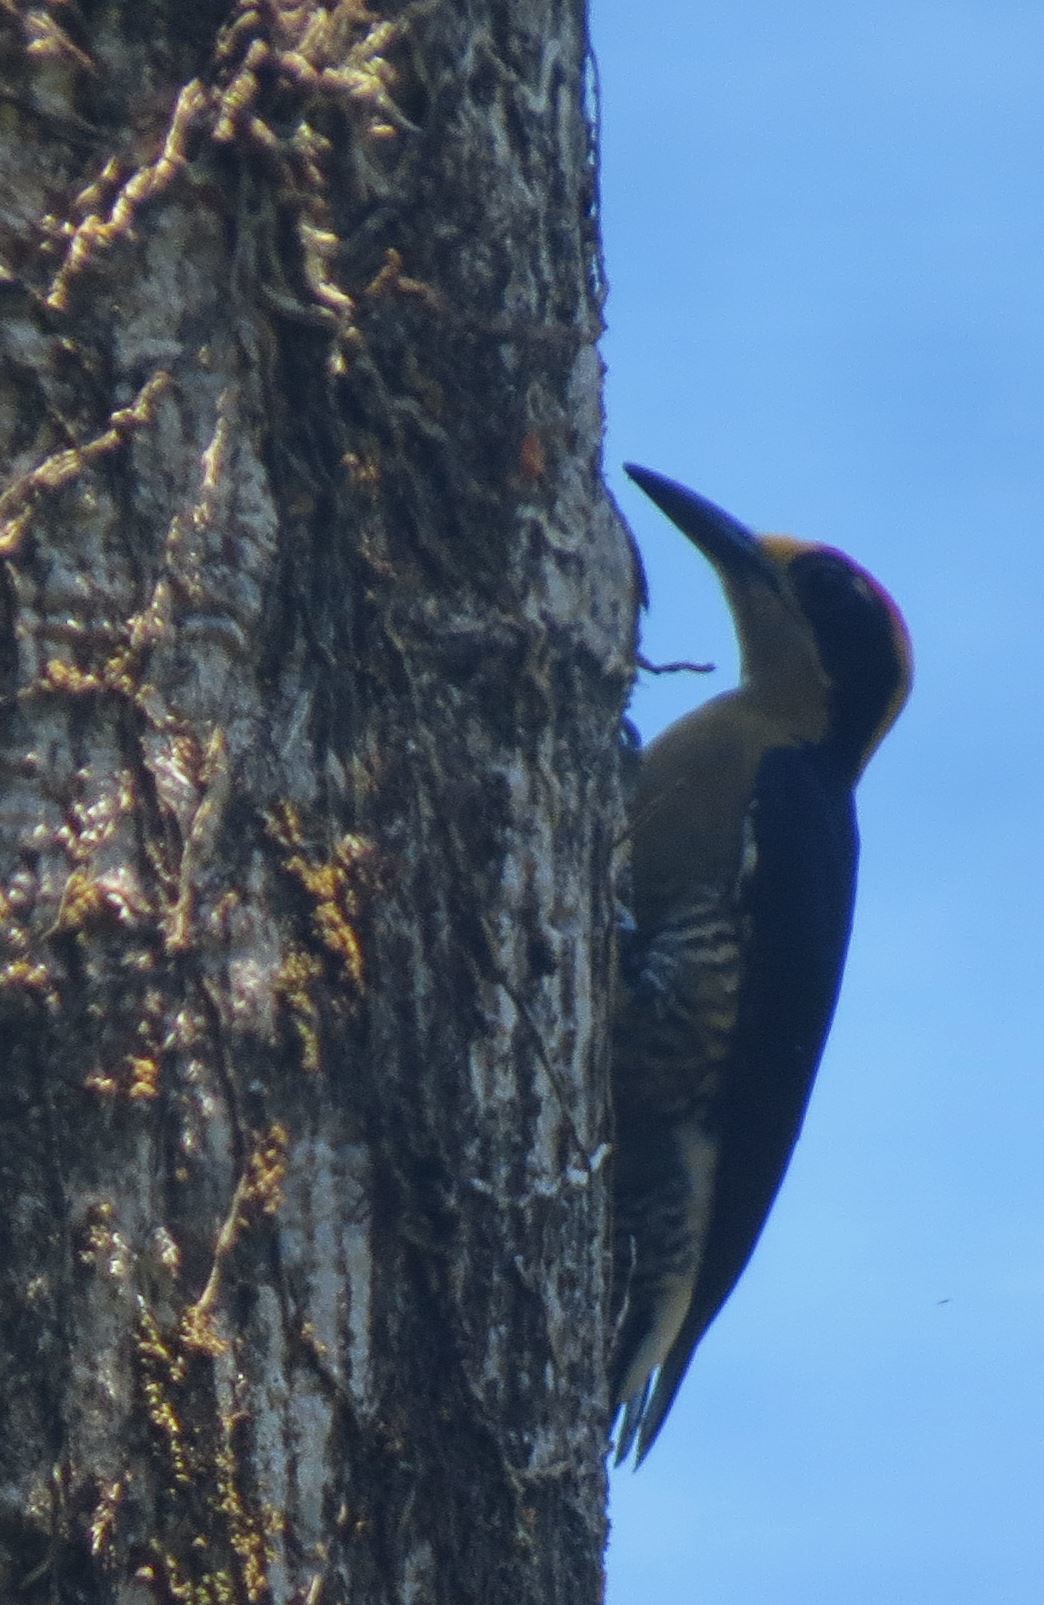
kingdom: Animalia
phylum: Chordata
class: Aves
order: Piciformes
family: Picidae
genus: Melanerpes
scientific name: Melanerpes chrysauchen
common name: Golden-naped woodpecker
